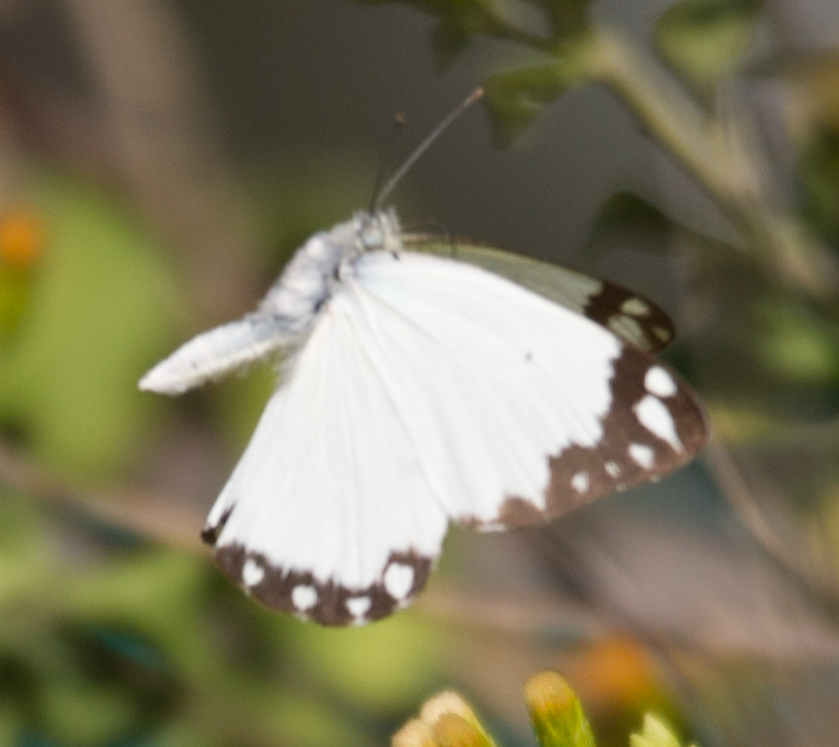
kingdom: Animalia
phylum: Arthropoda
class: Insecta
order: Lepidoptera
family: Pieridae
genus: Belenois
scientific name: Belenois creona
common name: African caper white
